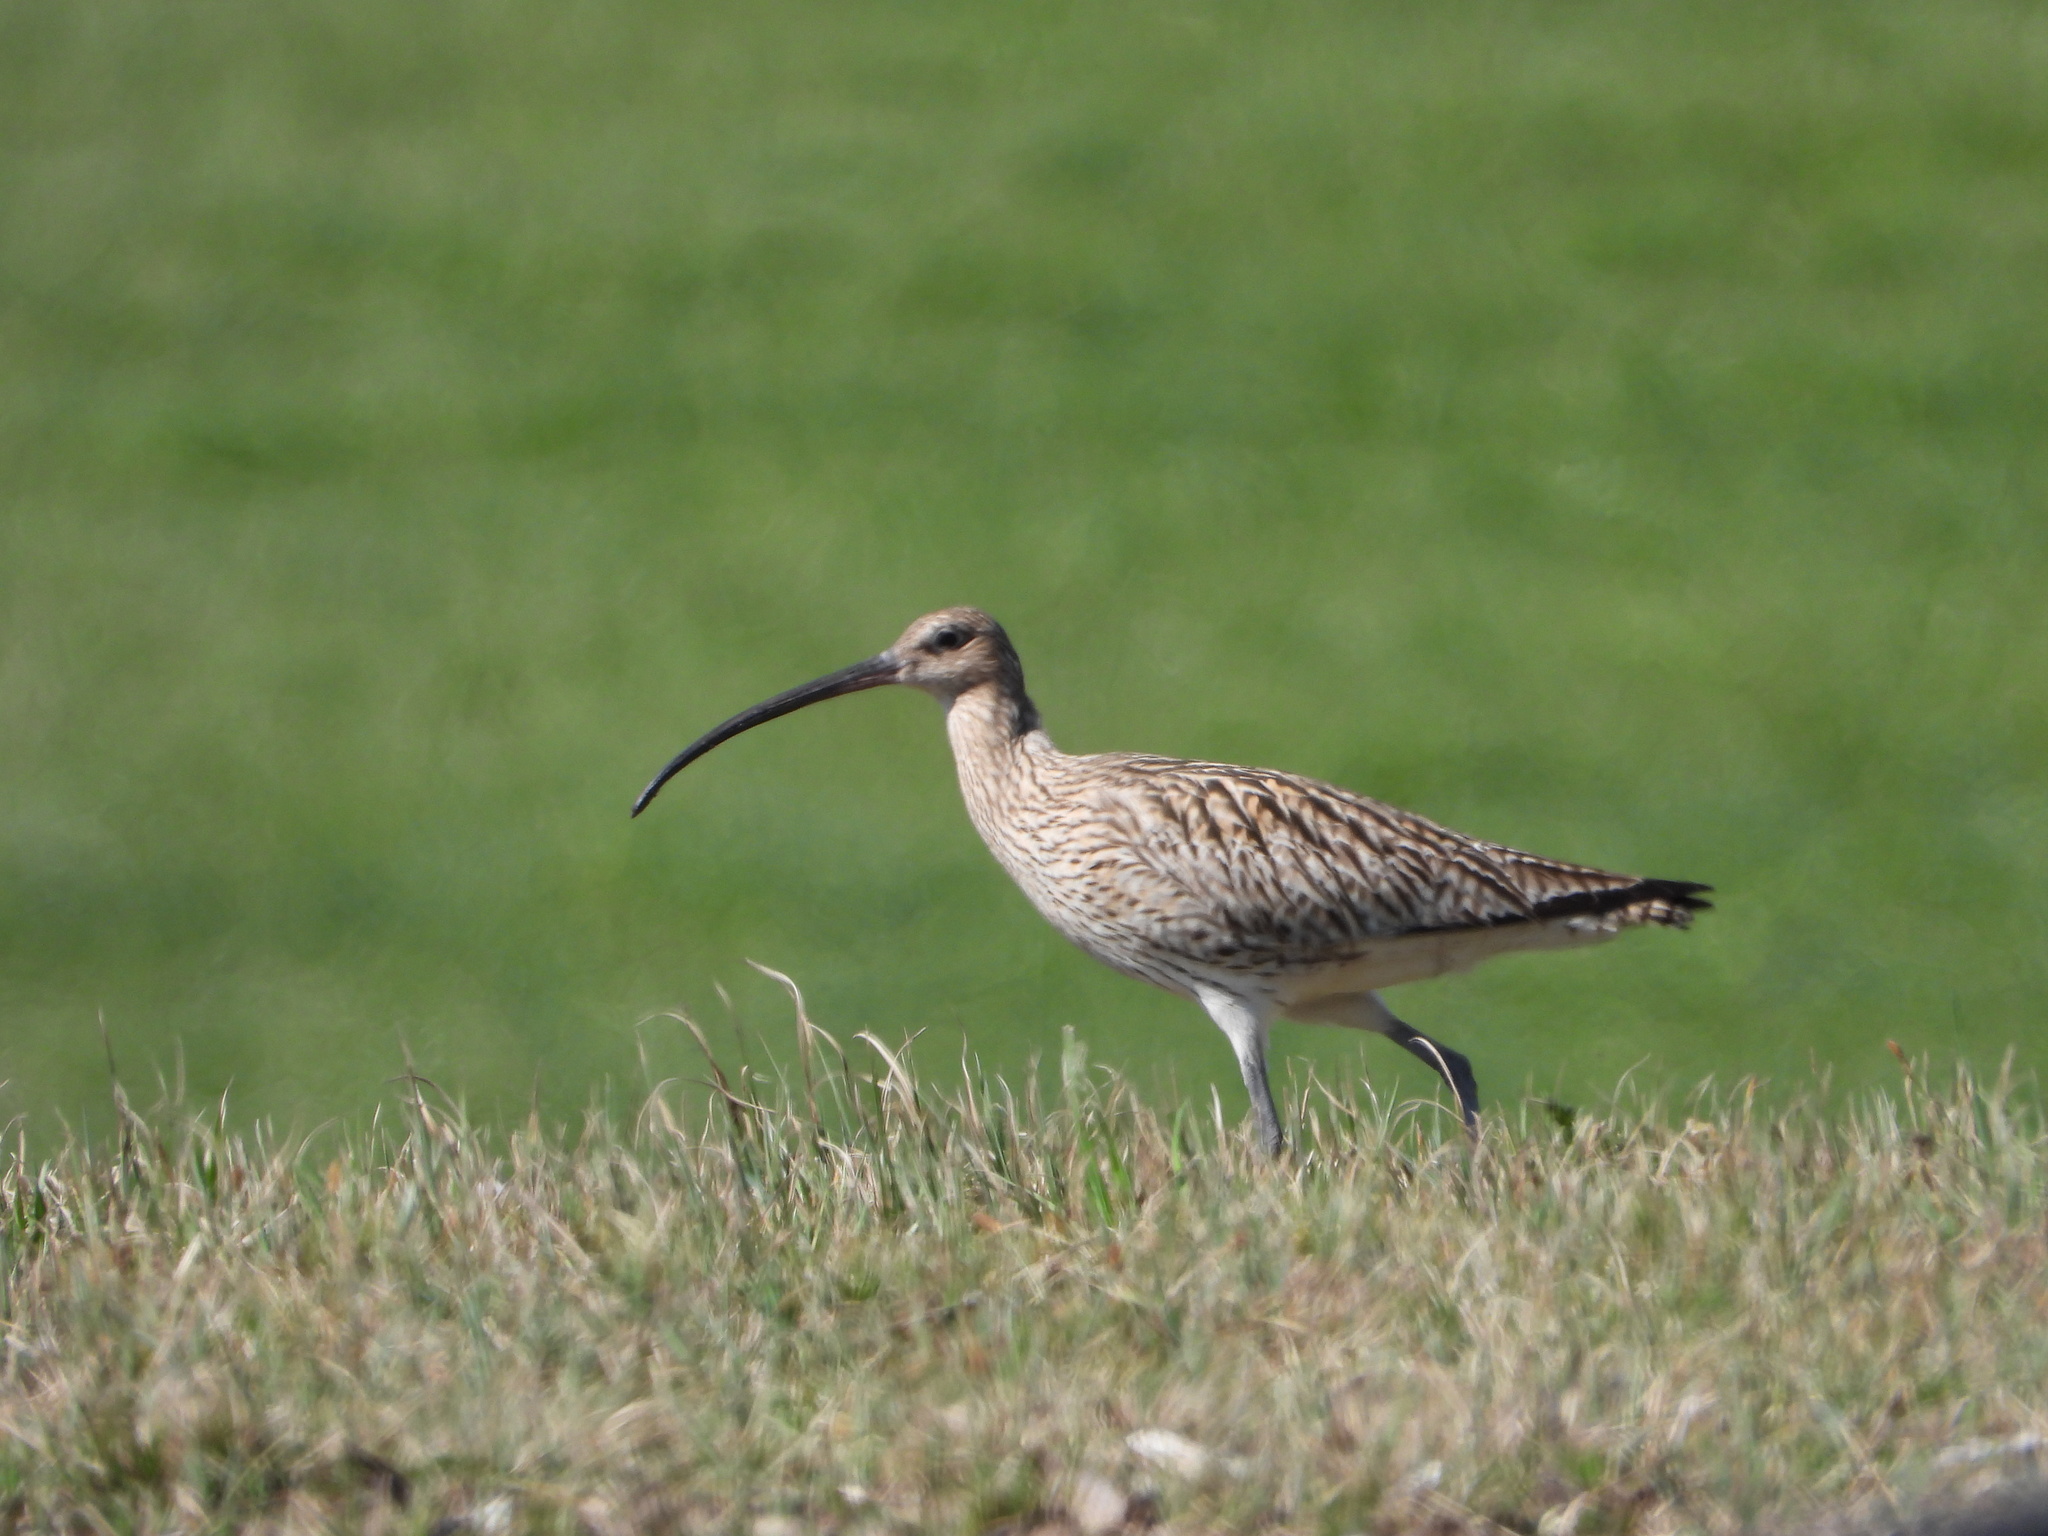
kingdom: Animalia
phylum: Chordata
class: Aves
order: Charadriiformes
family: Scolopacidae
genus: Numenius
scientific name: Numenius arquata
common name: Eurasian curlew
